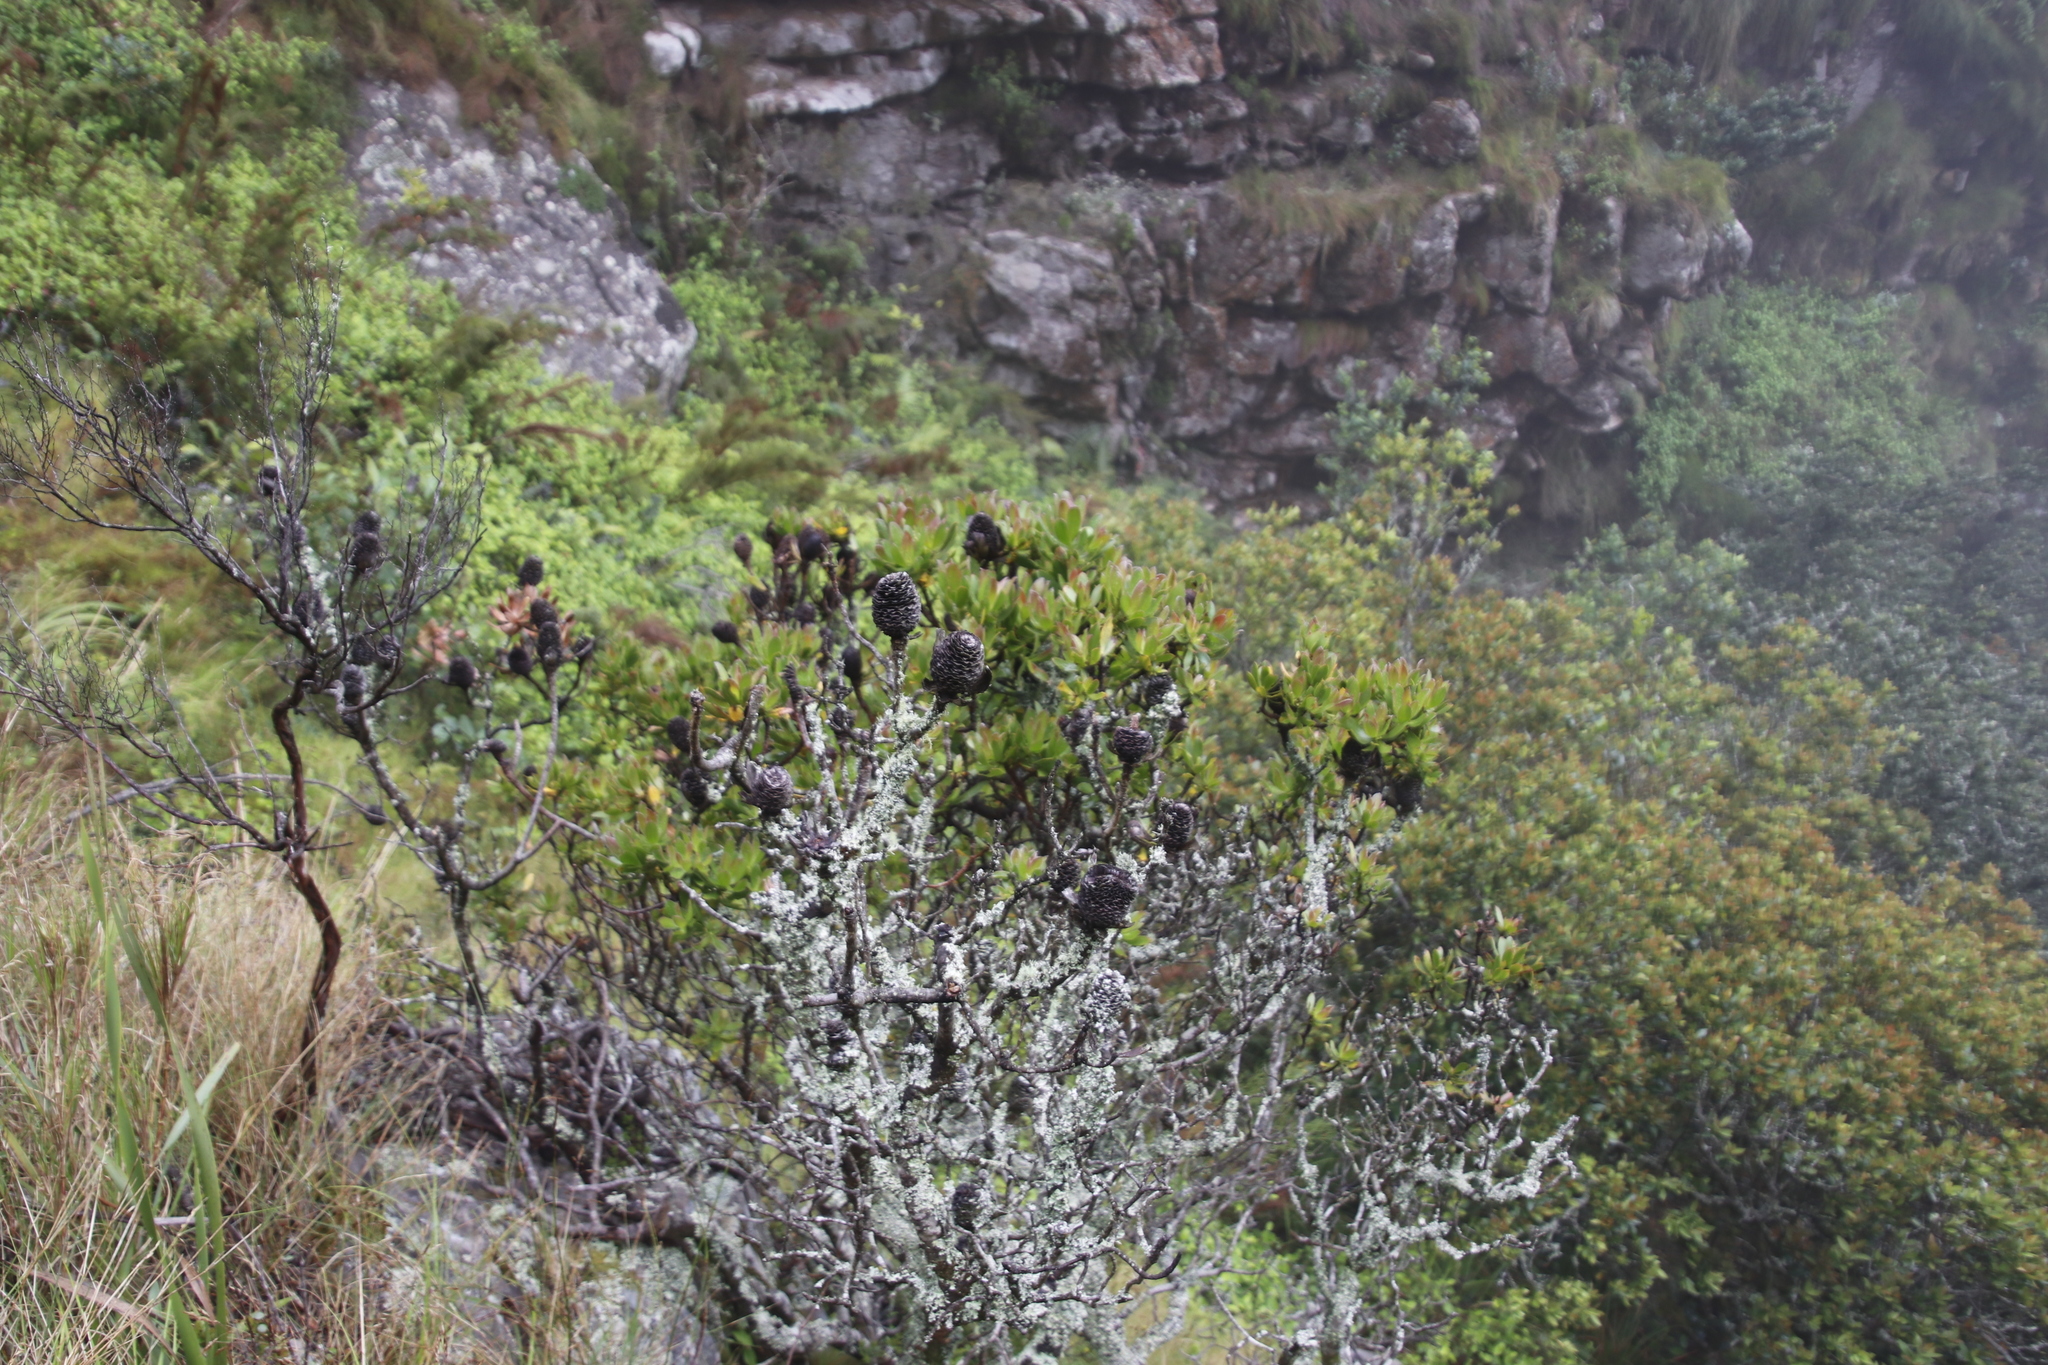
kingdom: Plantae
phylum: Tracheophyta
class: Magnoliopsida
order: Proteales
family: Proteaceae
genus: Leucadendron
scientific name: Leucadendron strobilinum
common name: Mountain rose
